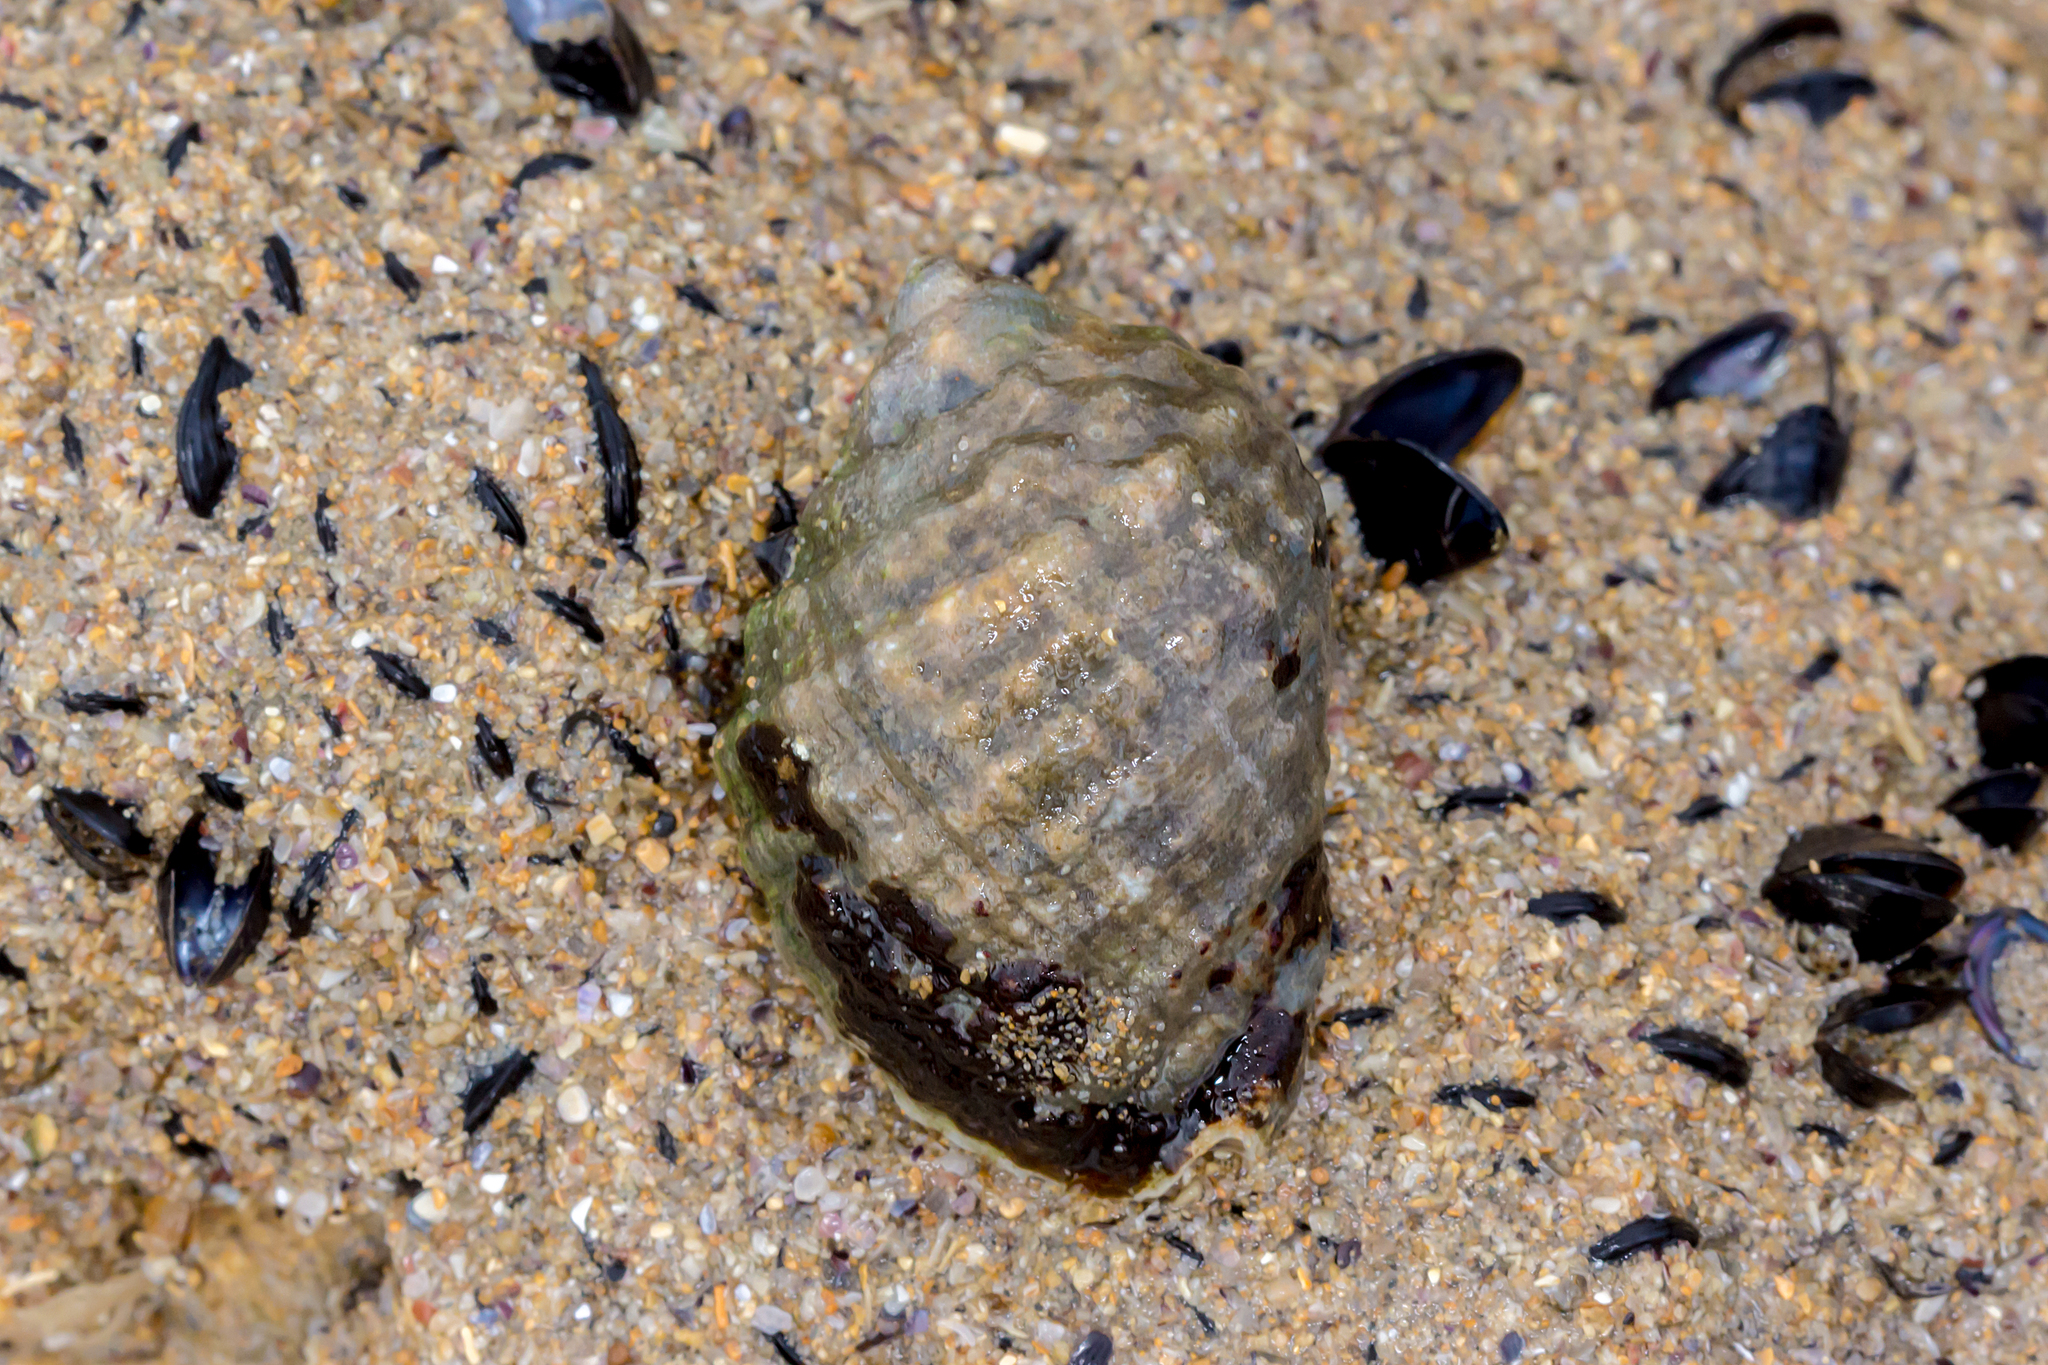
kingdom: Animalia
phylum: Mollusca
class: Gastropoda
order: Neogastropoda
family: Muricidae
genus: Dicathais
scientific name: Dicathais orbita
